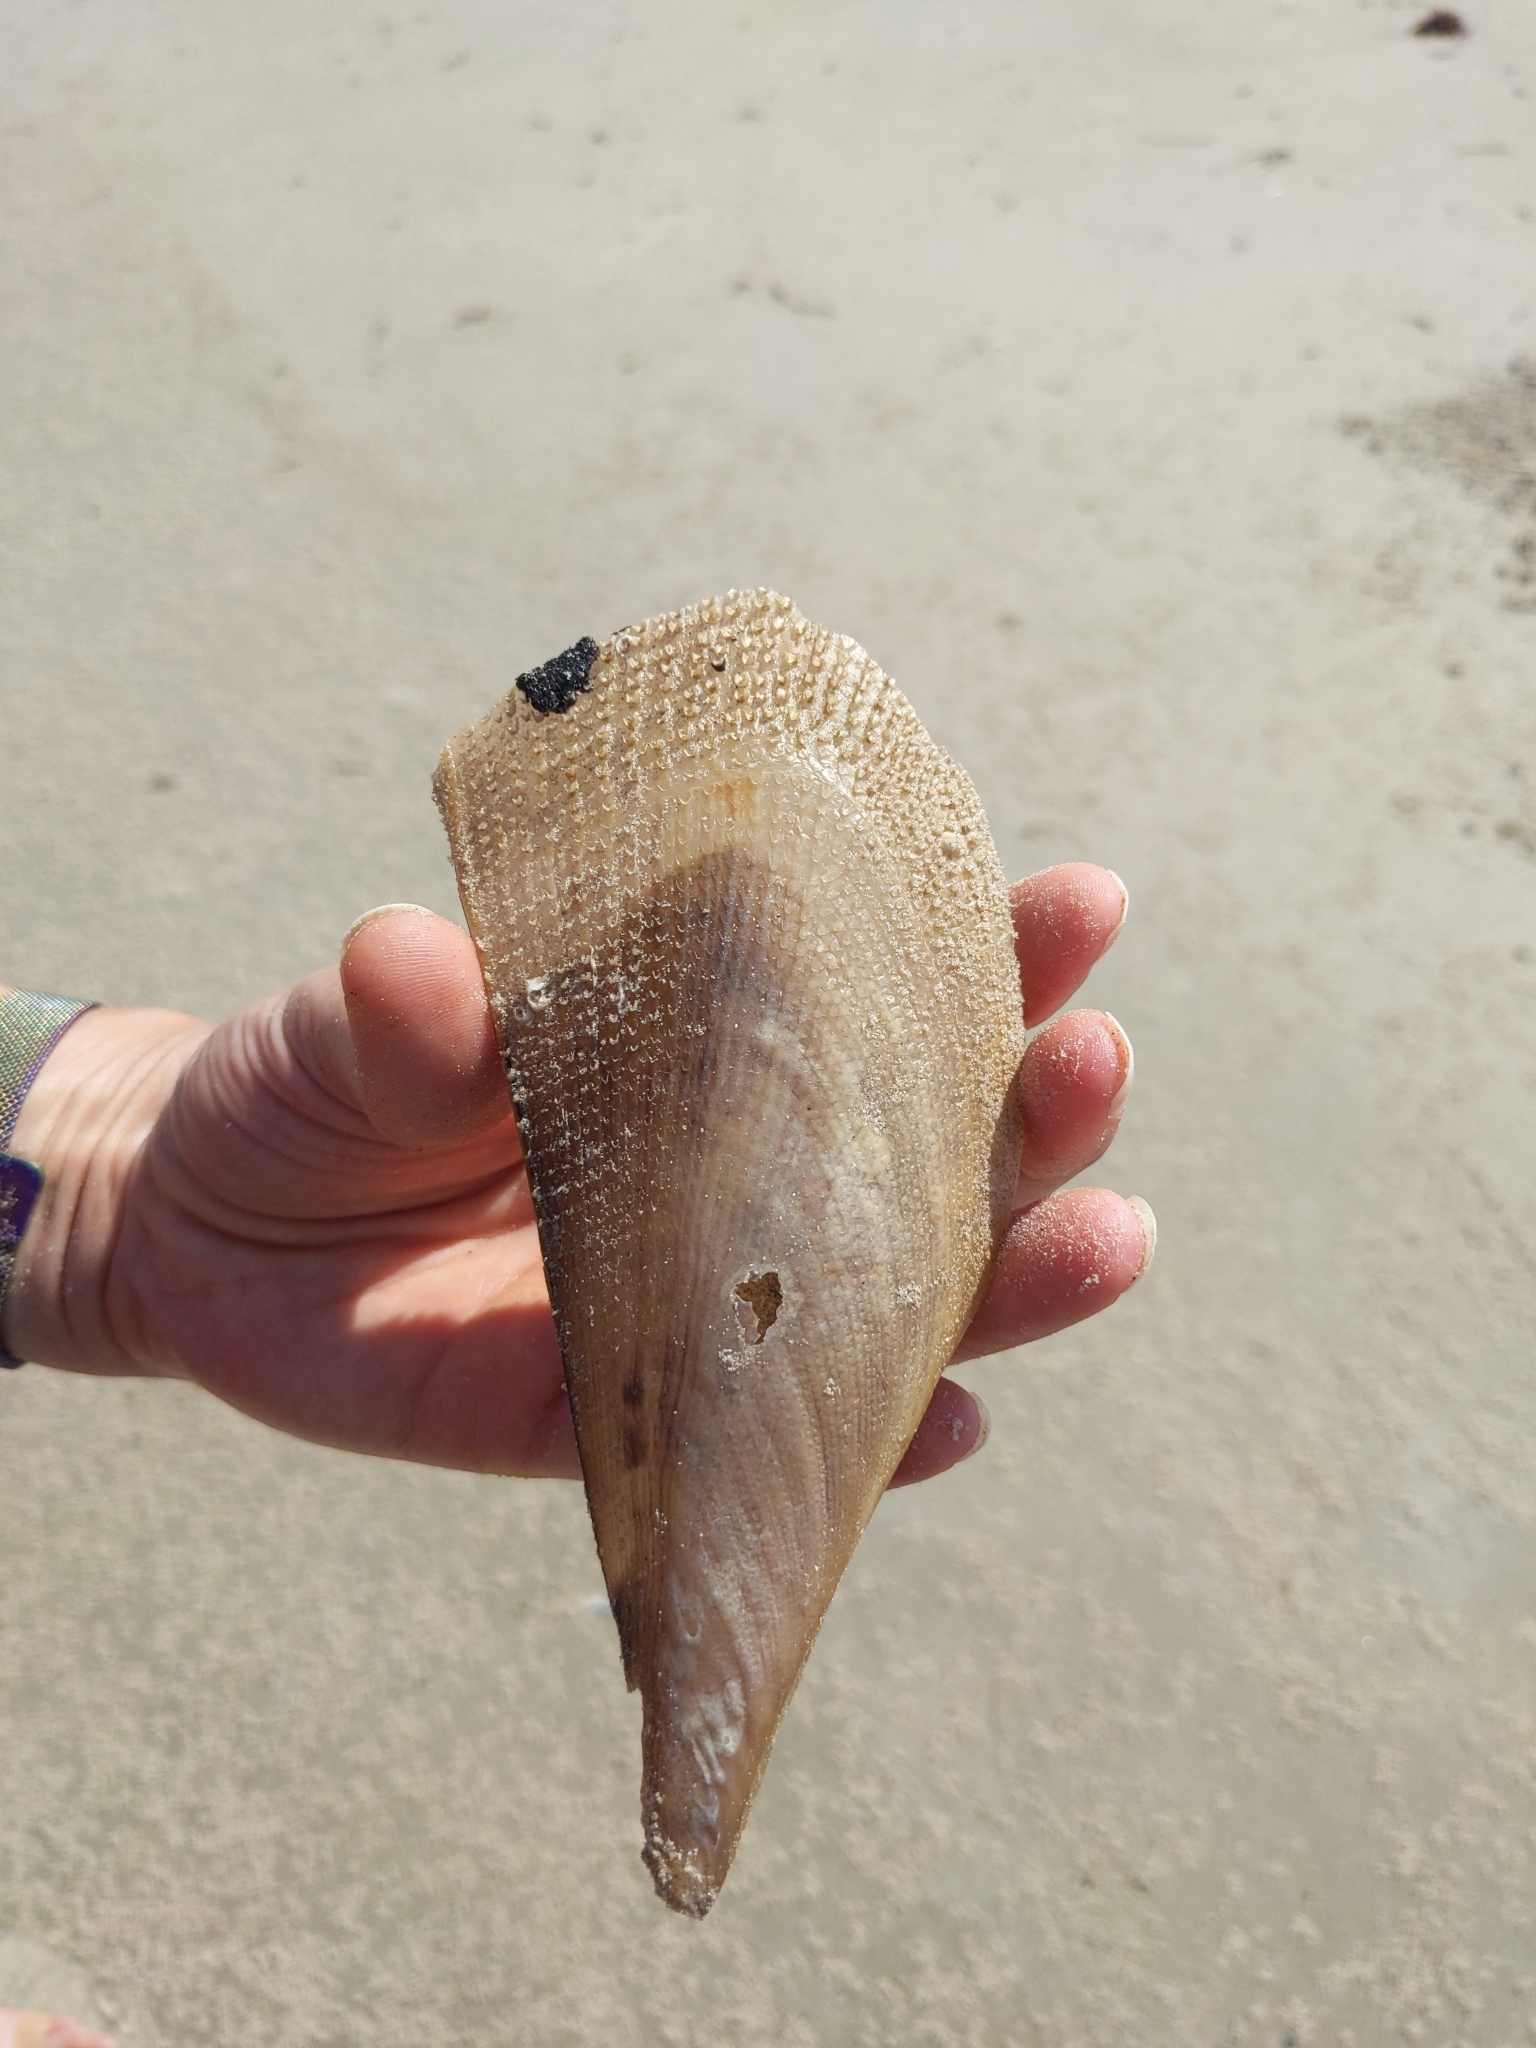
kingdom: Animalia
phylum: Mollusca
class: Bivalvia
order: Ostreida
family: Pinnidae
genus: Atrina
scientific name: Atrina serrata
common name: Saw-toothed penshell
